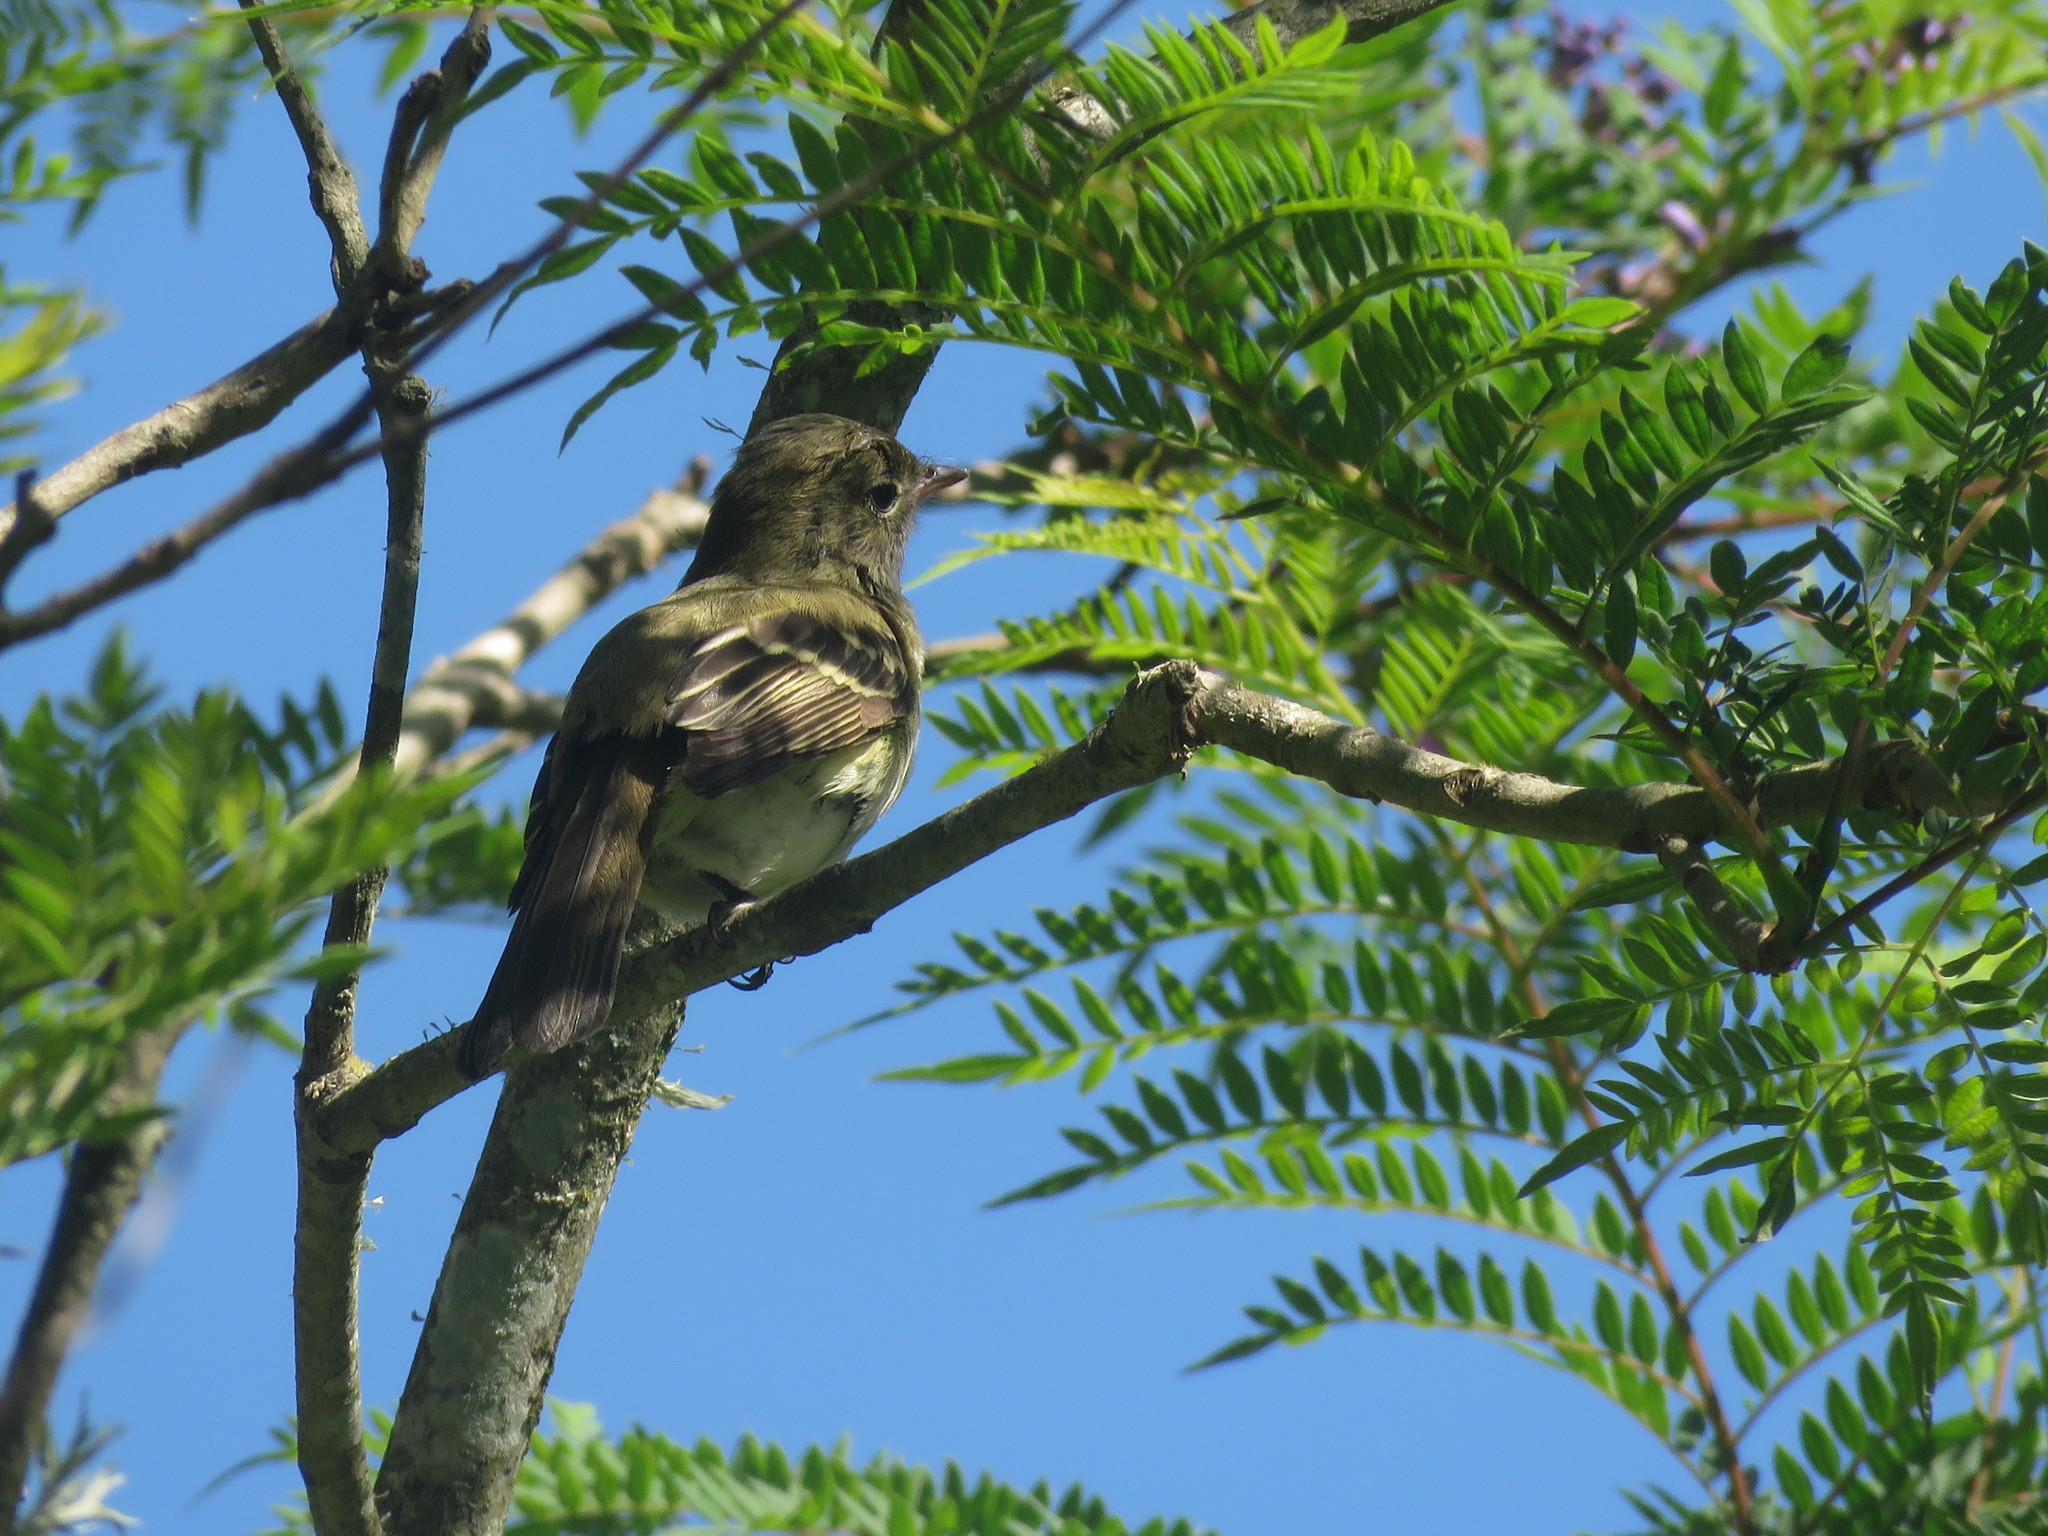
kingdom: Animalia
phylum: Chordata
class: Aves
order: Passeriformes
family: Tyrannidae
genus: Elaenia
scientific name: Elaenia parvirostris
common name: Small-billed elaenia
